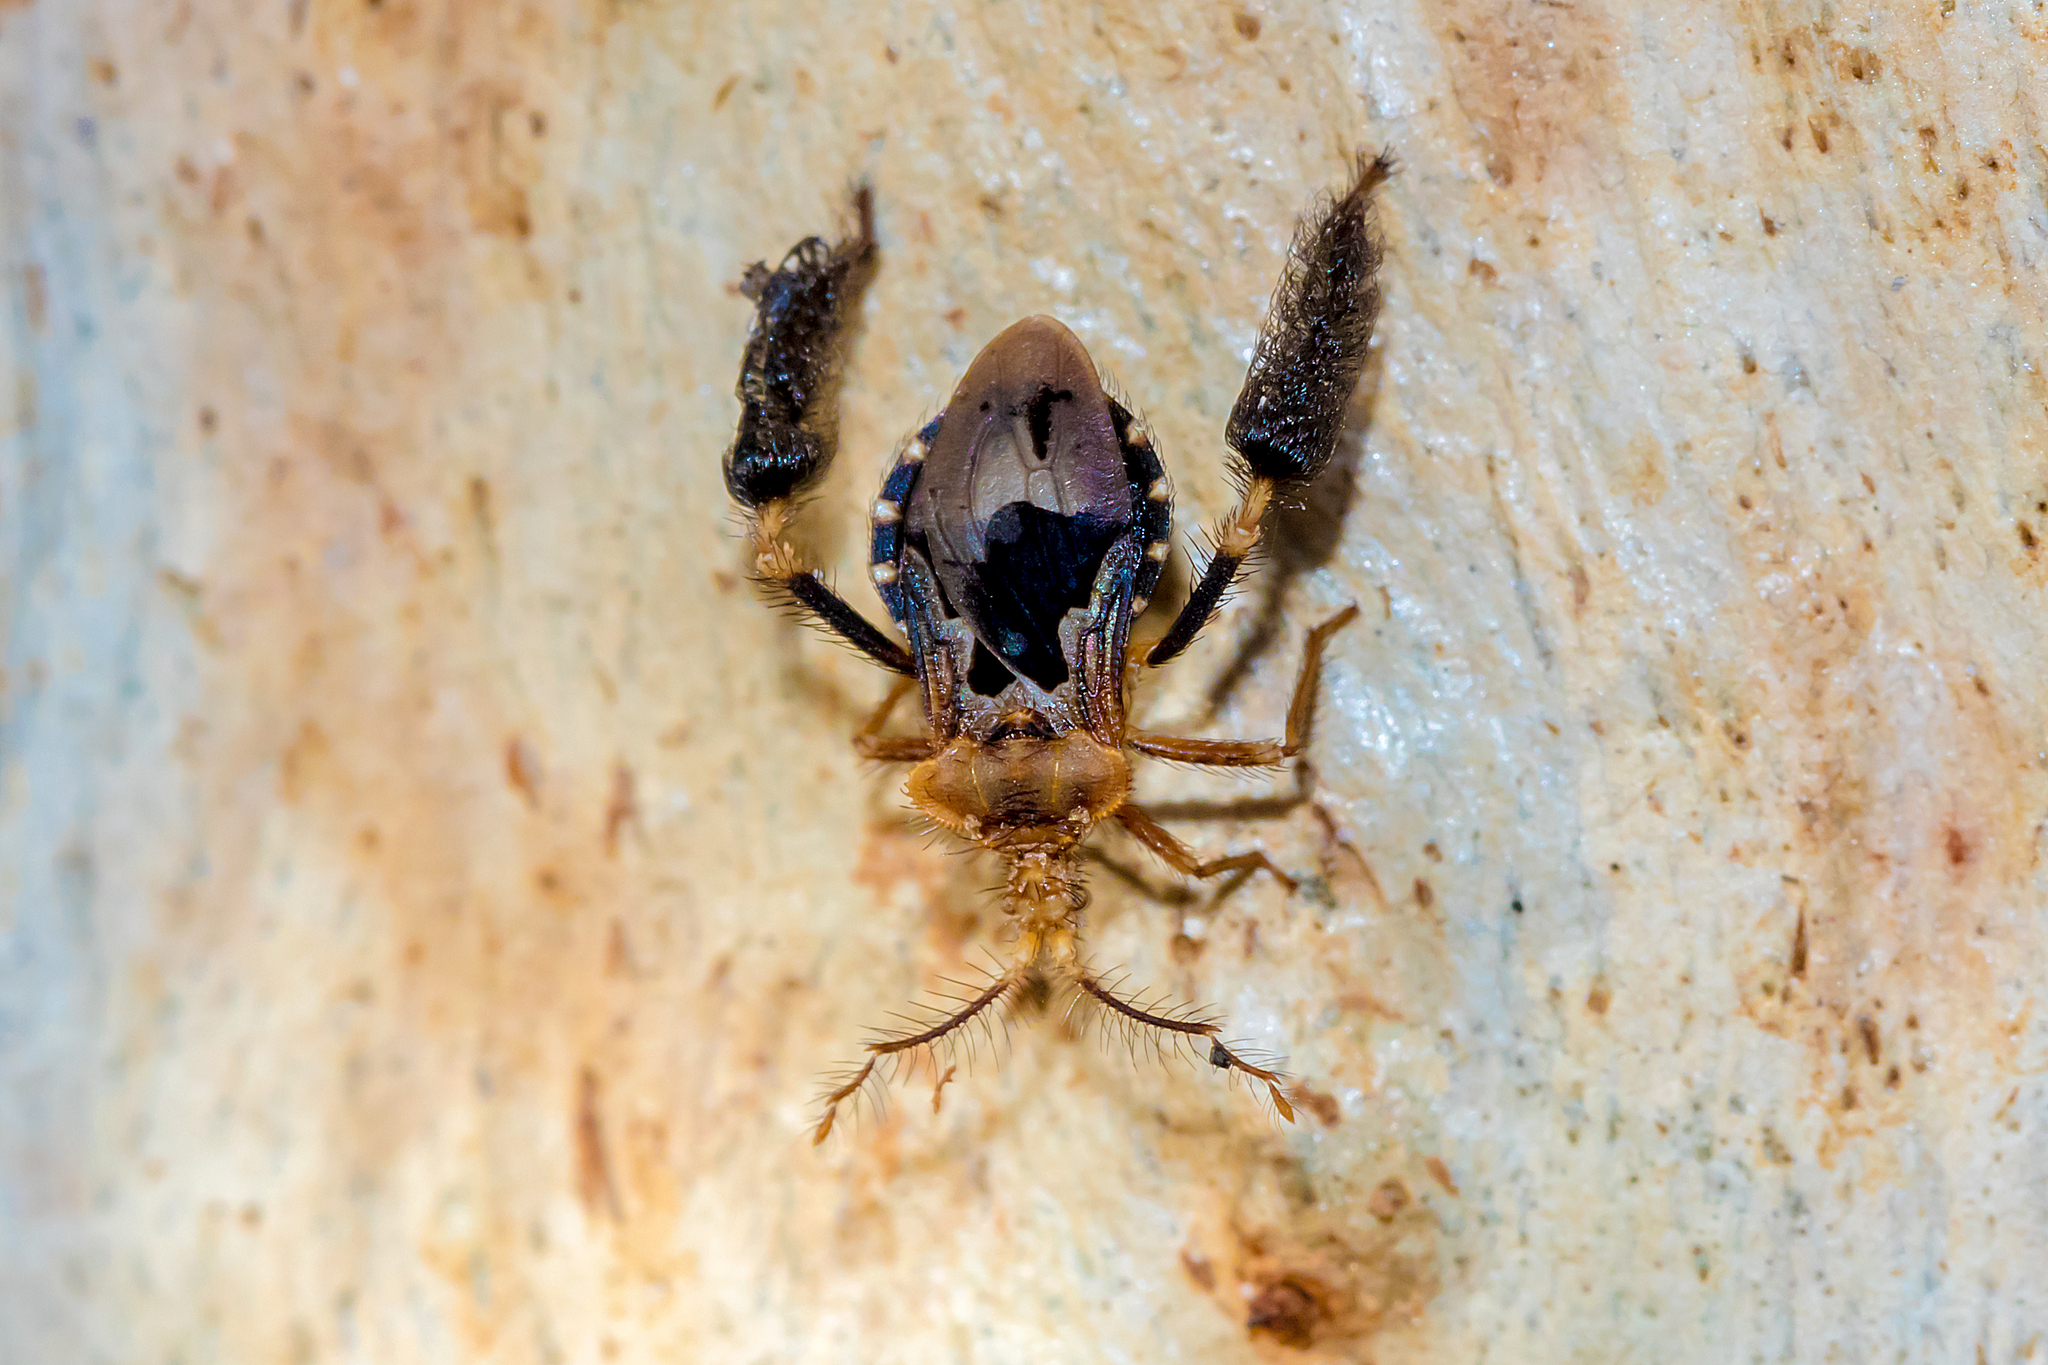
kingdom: Animalia
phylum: Arthropoda
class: Insecta
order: Hemiptera
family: Reduviidae
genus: Ptilocnemus
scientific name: Ptilocnemus lemur
